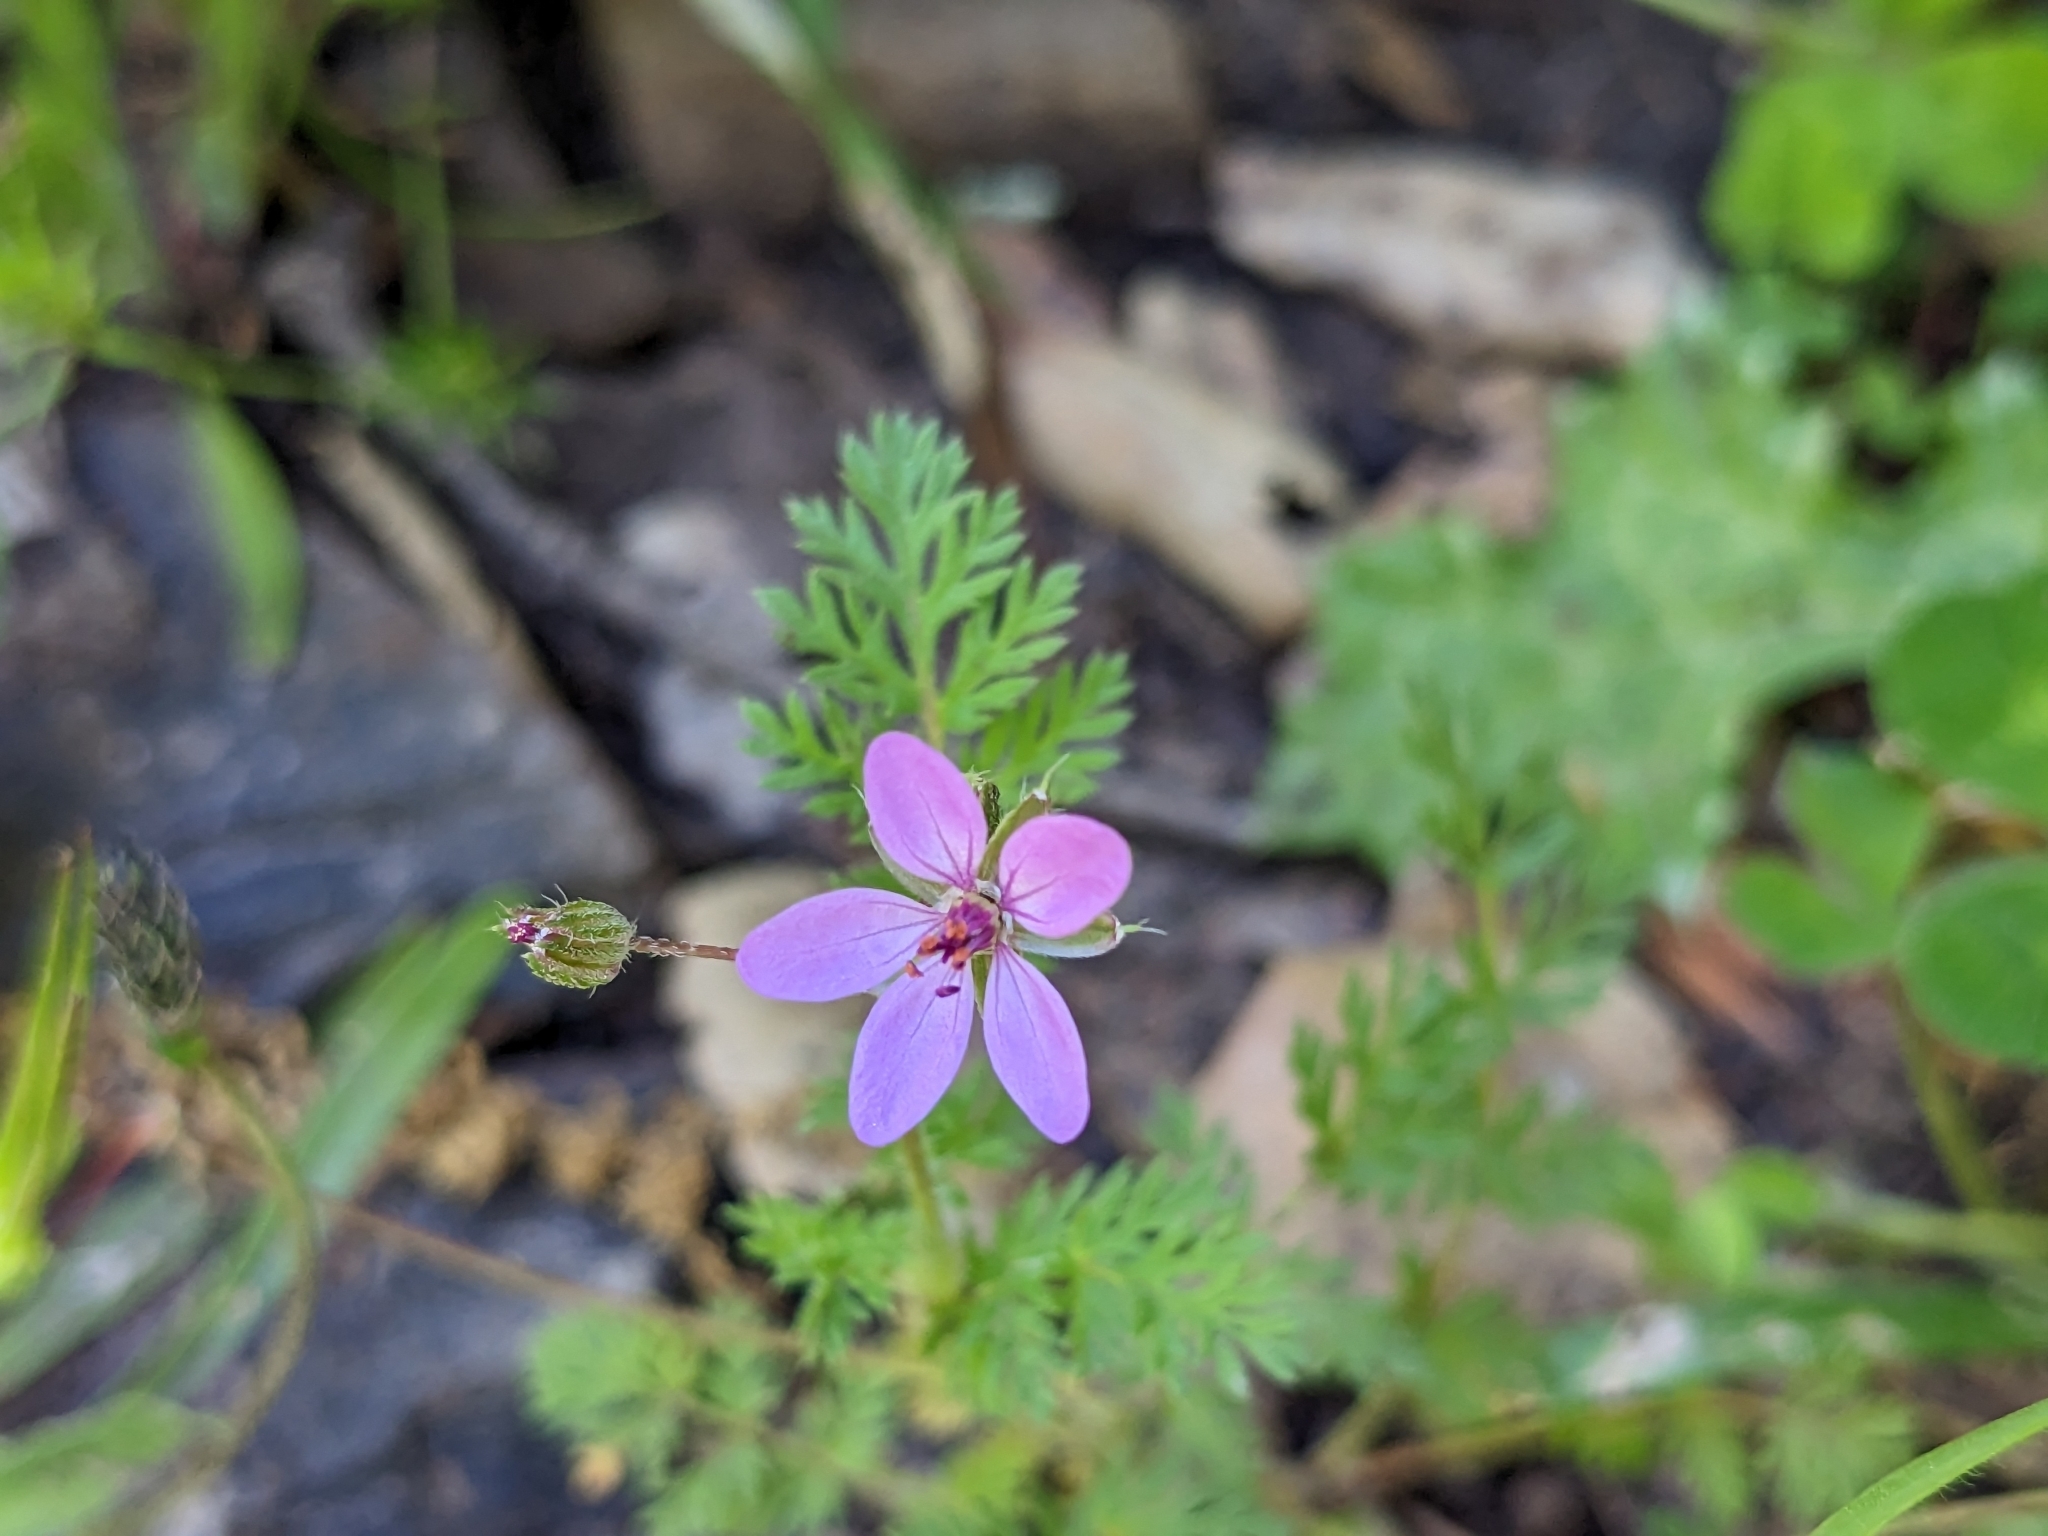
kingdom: Plantae
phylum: Tracheophyta
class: Magnoliopsida
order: Geraniales
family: Geraniaceae
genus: Erodium
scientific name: Erodium cicutarium
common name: Common stork's-bill
